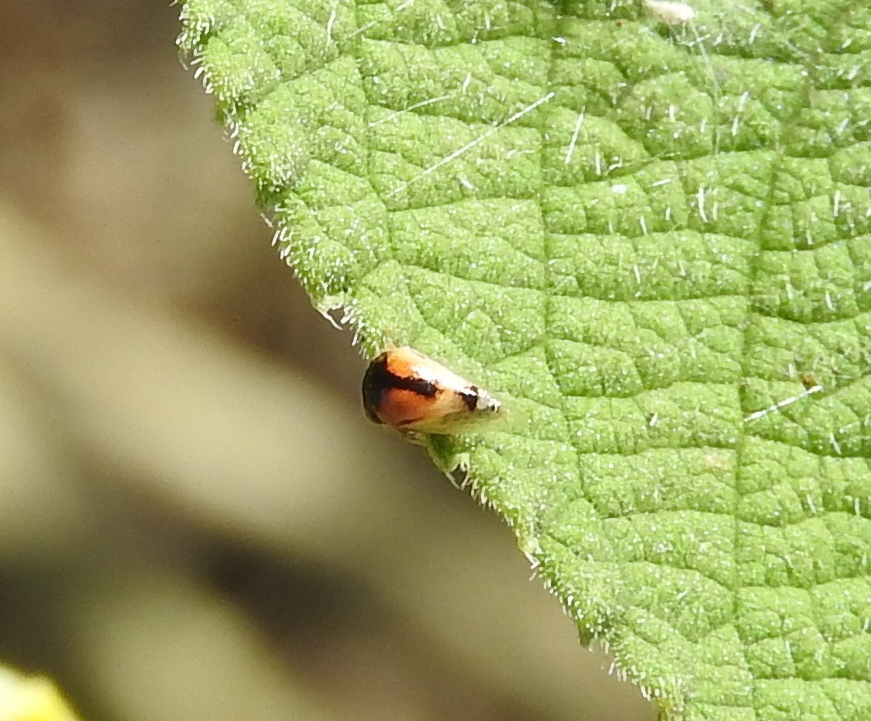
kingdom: Animalia
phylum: Arthropoda
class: Insecta
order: Hemiptera
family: Membracidae
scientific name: Membracidae
